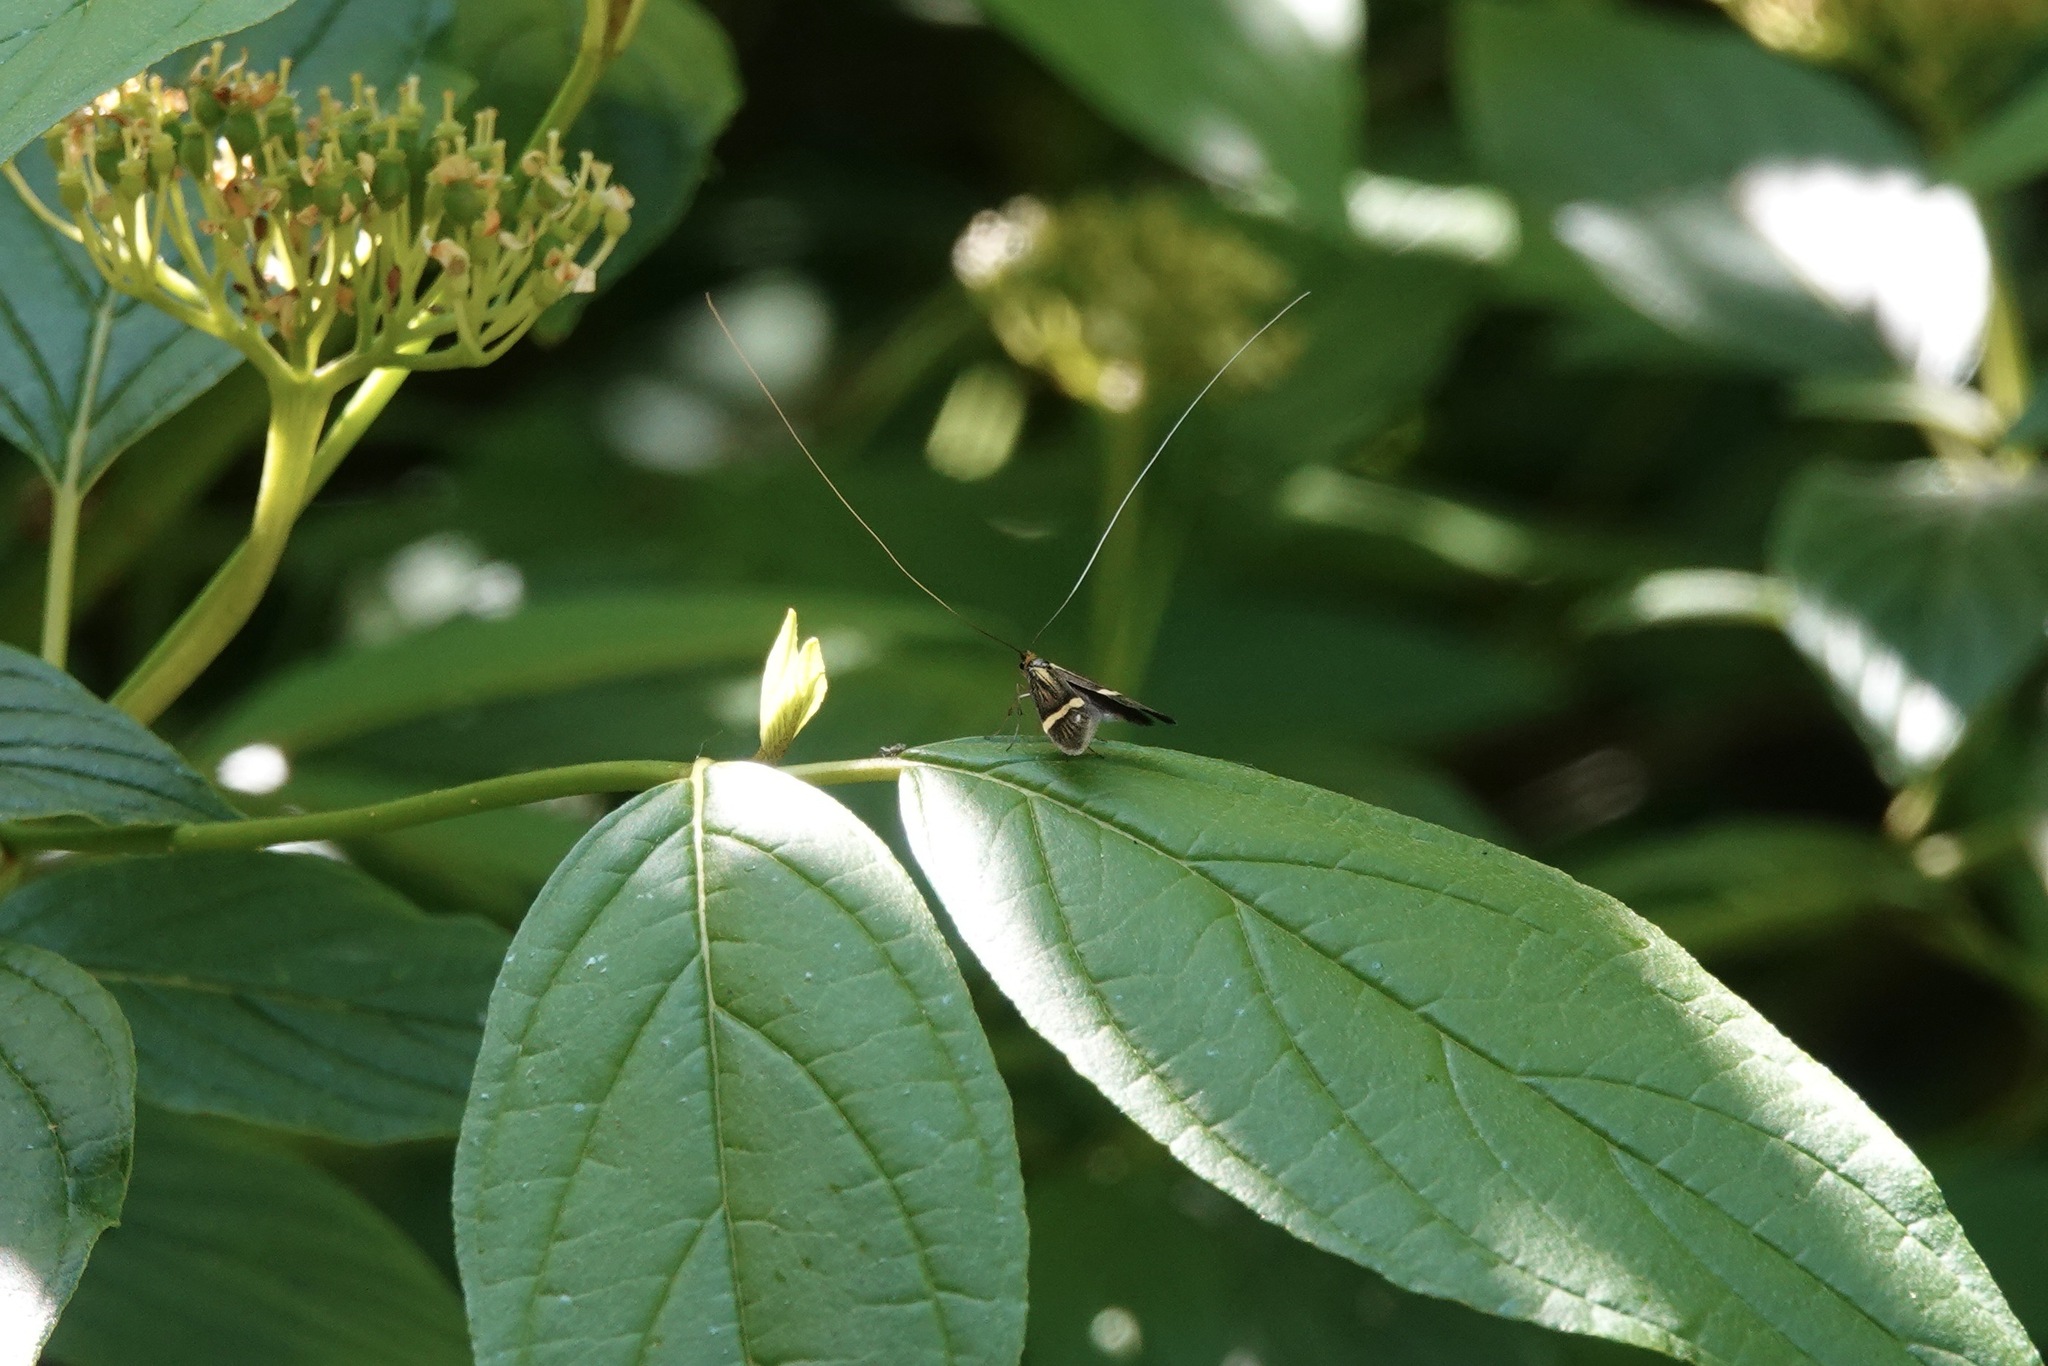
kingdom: Animalia
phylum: Arthropoda
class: Insecta
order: Lepidoptera
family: Adelidae
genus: Nemophora
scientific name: Nemophora degeerella
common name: Yellow-barred long-horn
